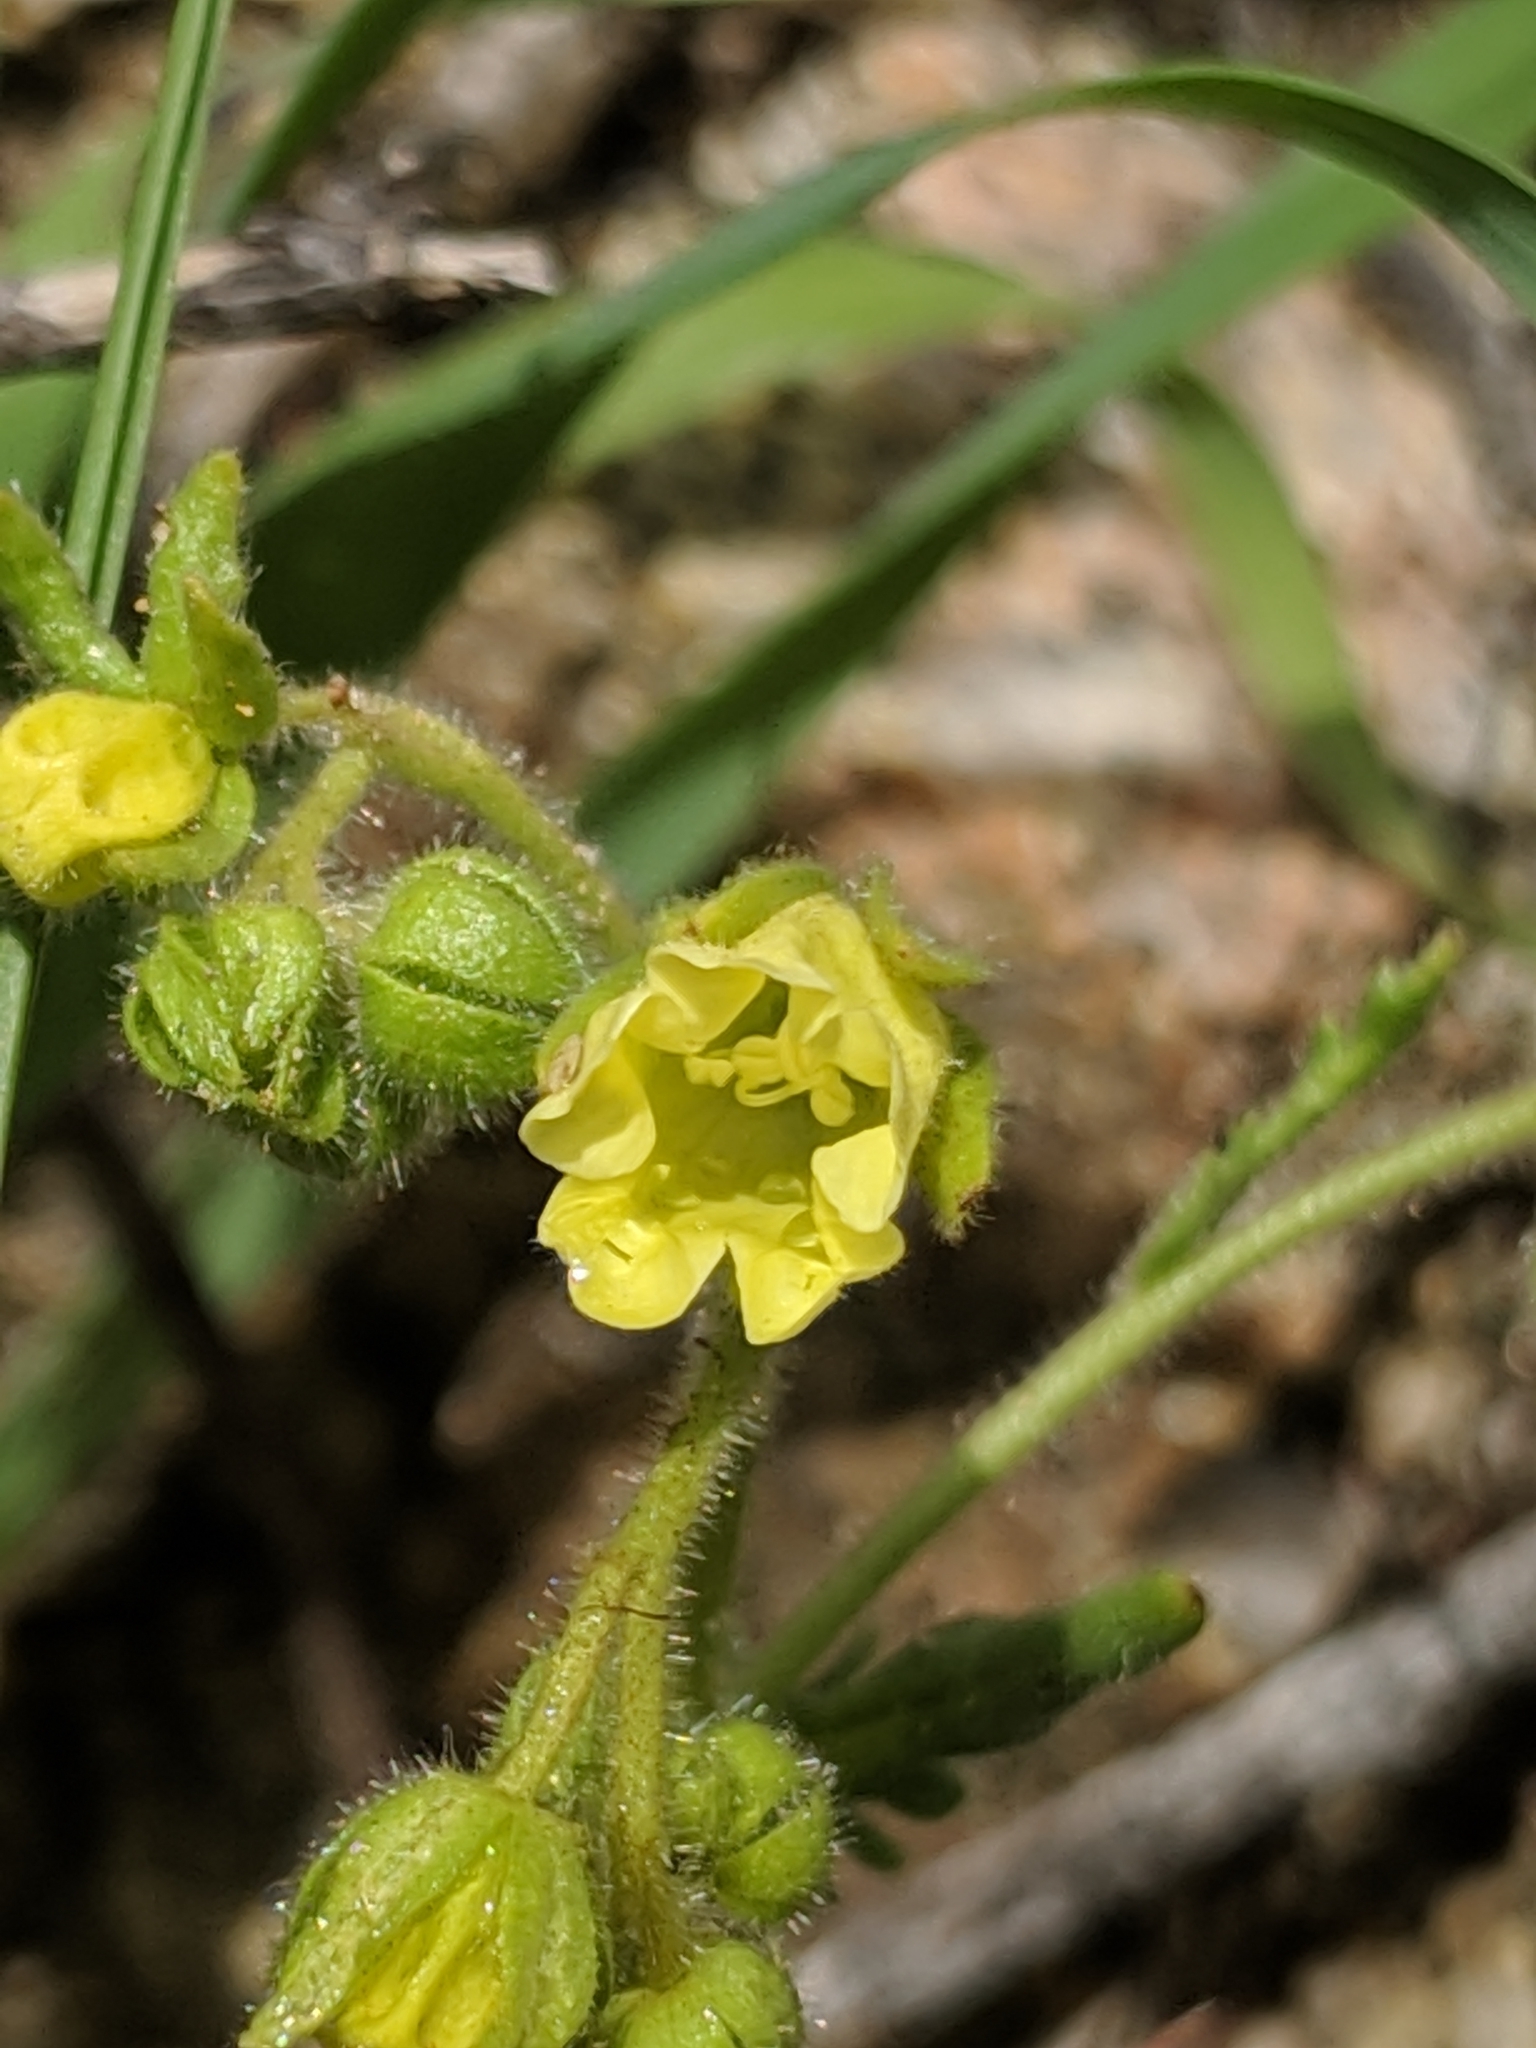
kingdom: Plantae
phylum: Tracheophyta
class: Magnoliopsida
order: Boraginales
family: Hydrophyllaceae
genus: Emmenanthe
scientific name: Emmenanthe penduliflora
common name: Whispering-bells
